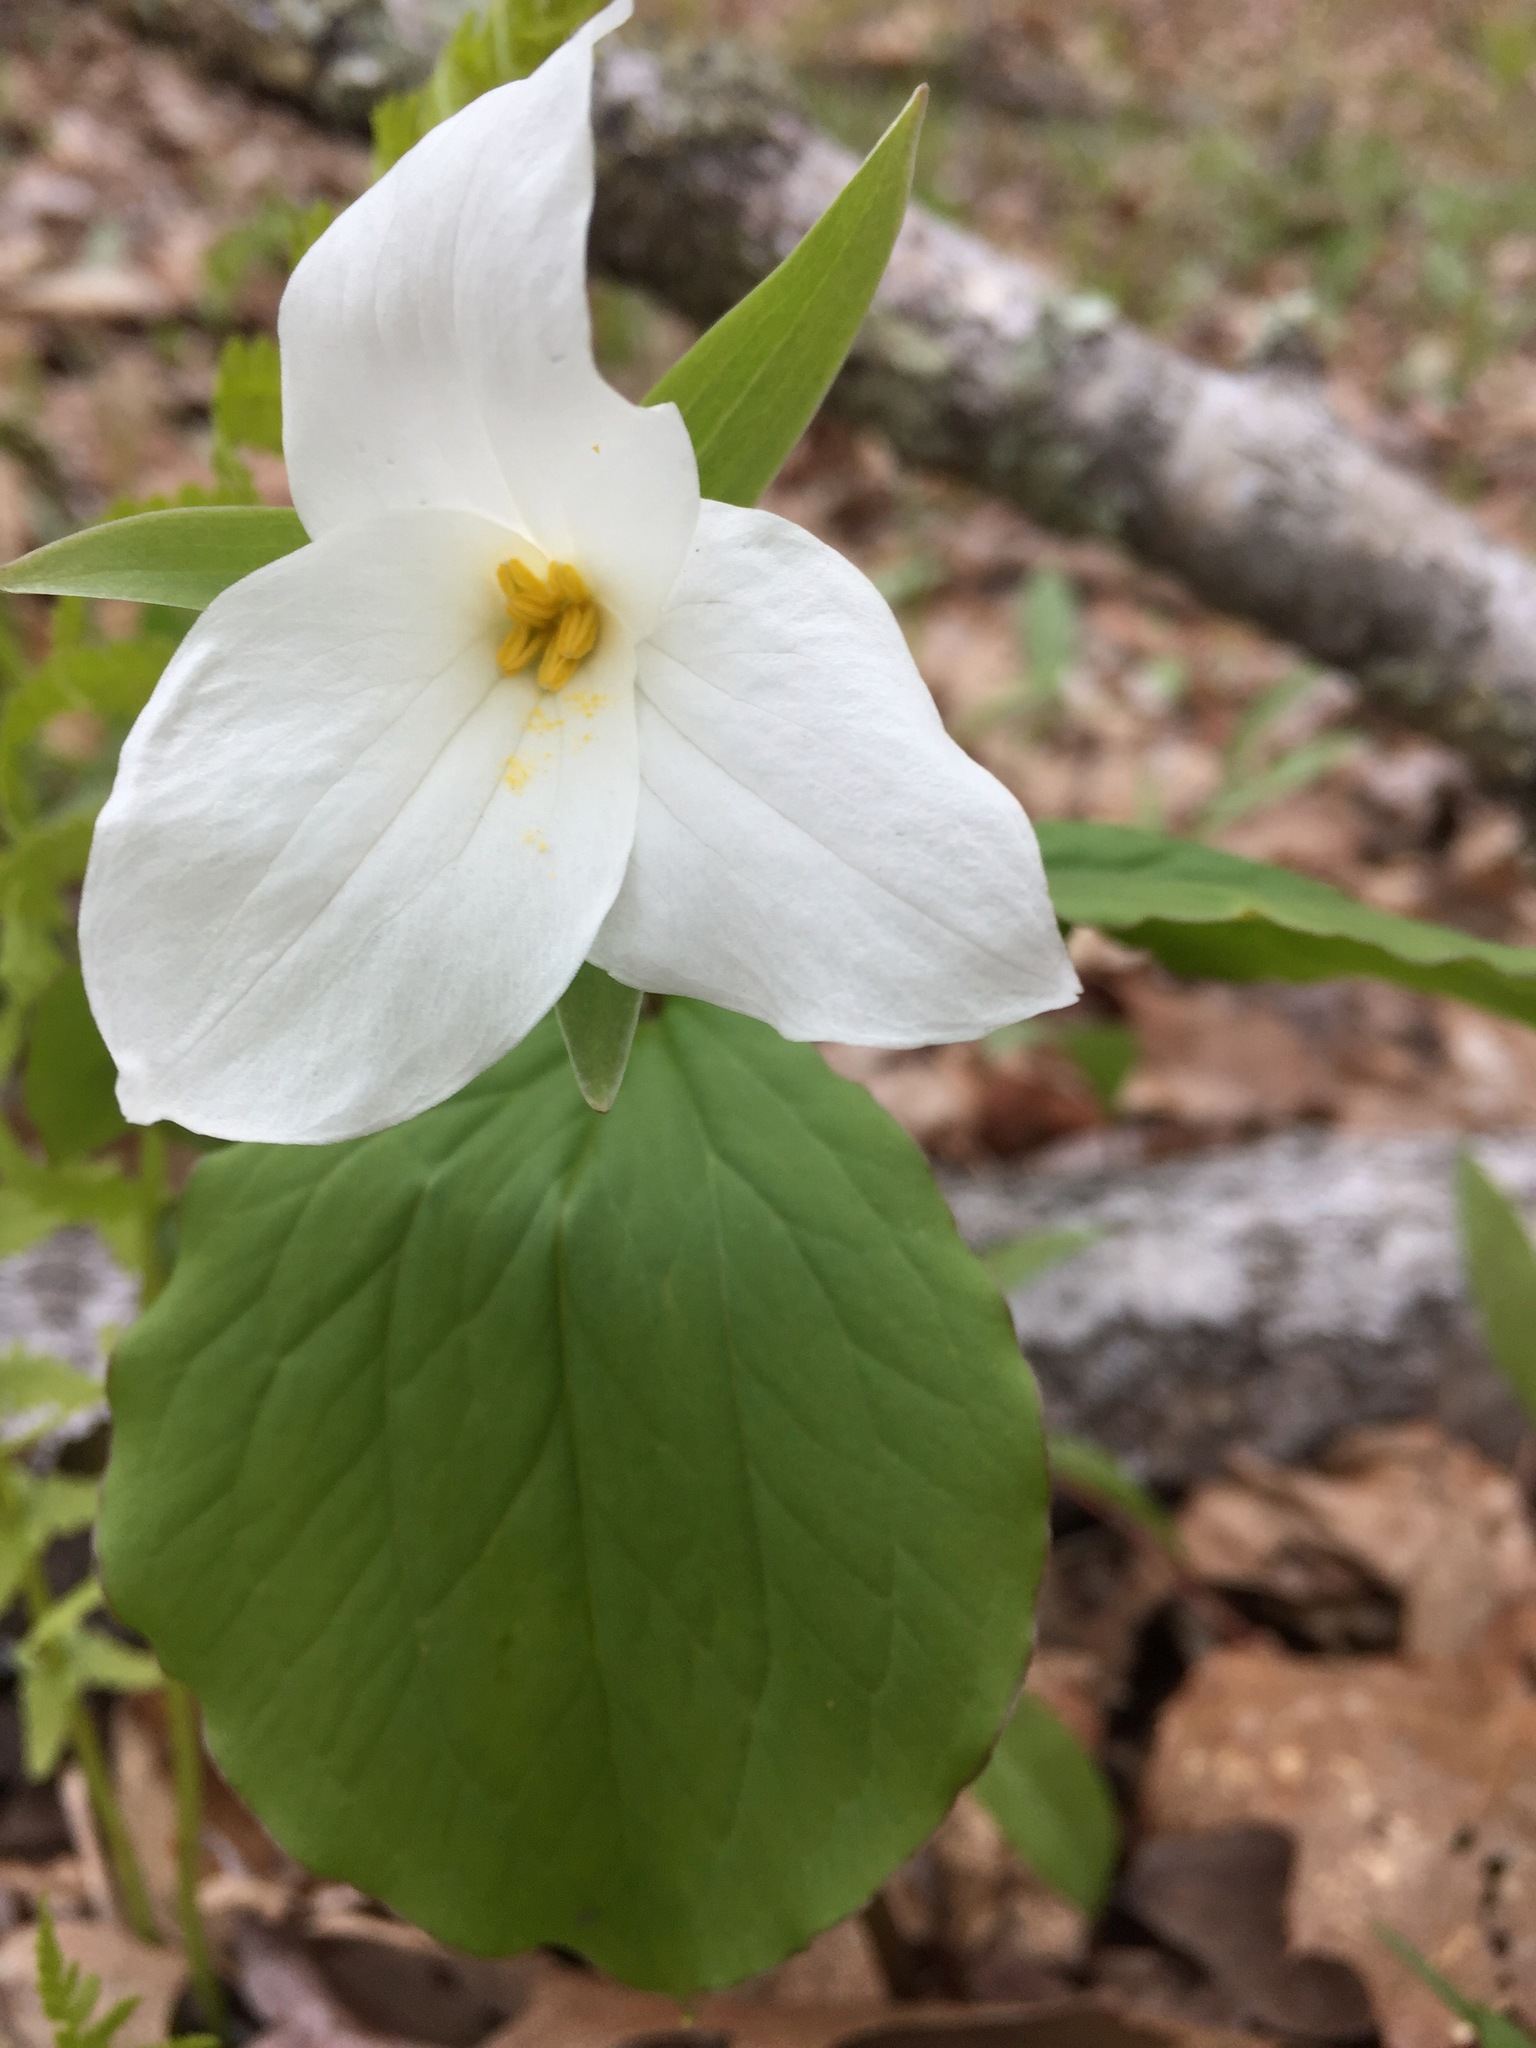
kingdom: Plantae
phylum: Tracheophyta
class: Liliopsida
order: Liliales
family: Melanthiaceae
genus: Trillium
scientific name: Trillium grandiflorum
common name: Great white trillium
